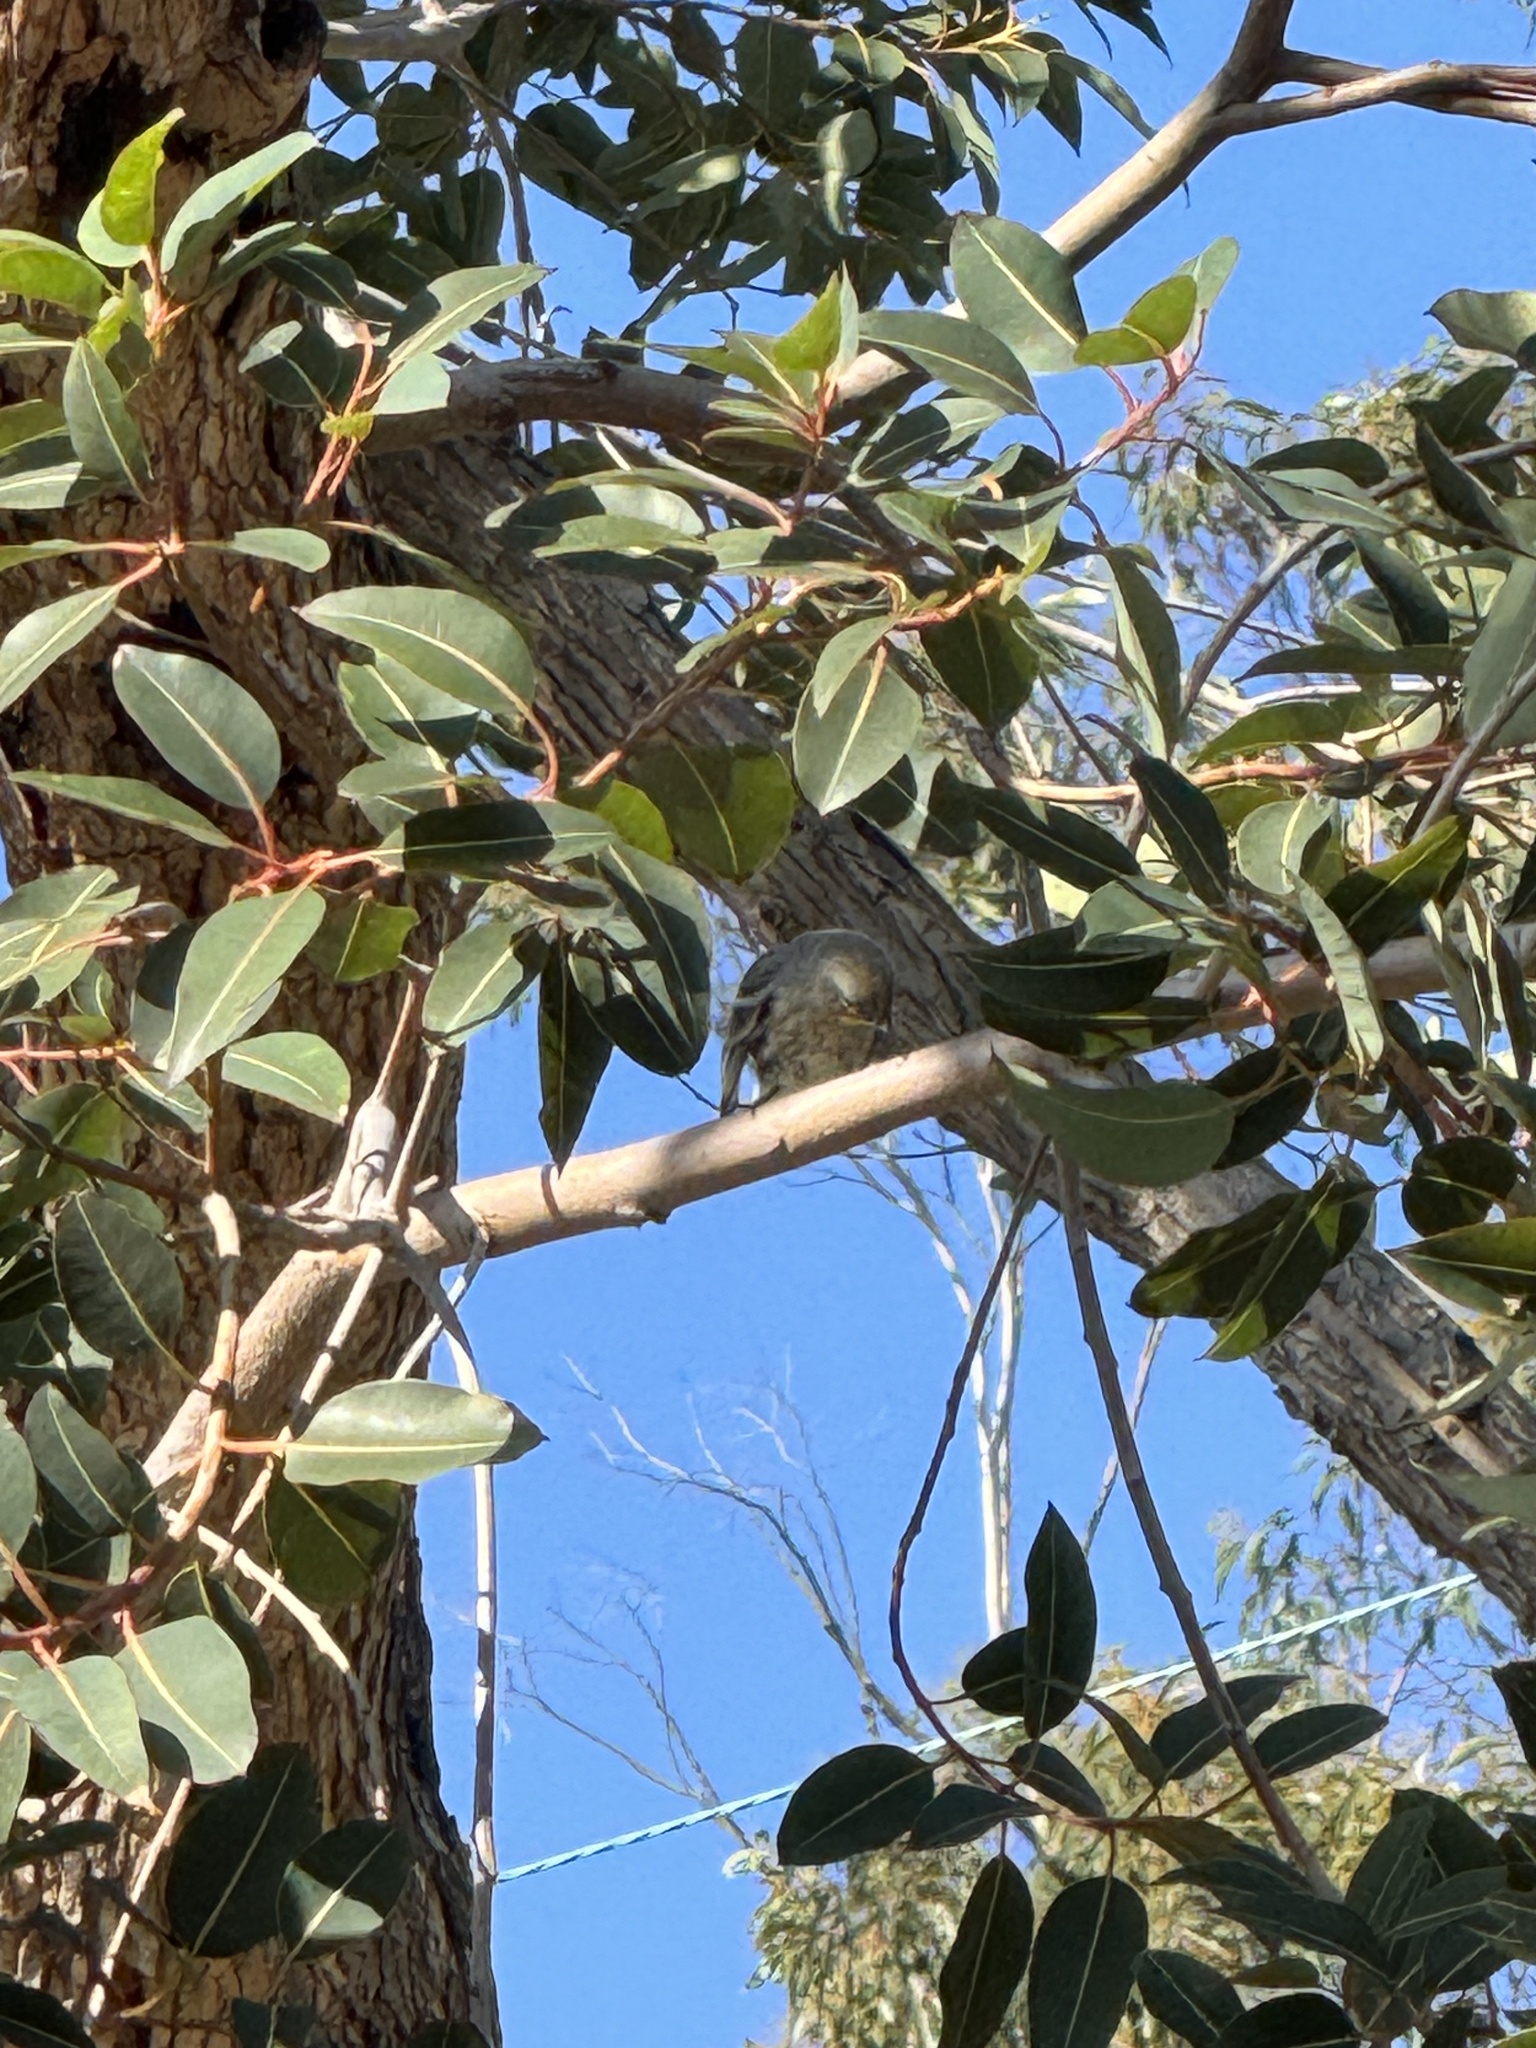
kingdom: Animalia
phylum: Chordata
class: Aves
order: Passeriformes
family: Parulidae
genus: Setophaga
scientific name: Setophaga coronata
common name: Myrtle warbler
